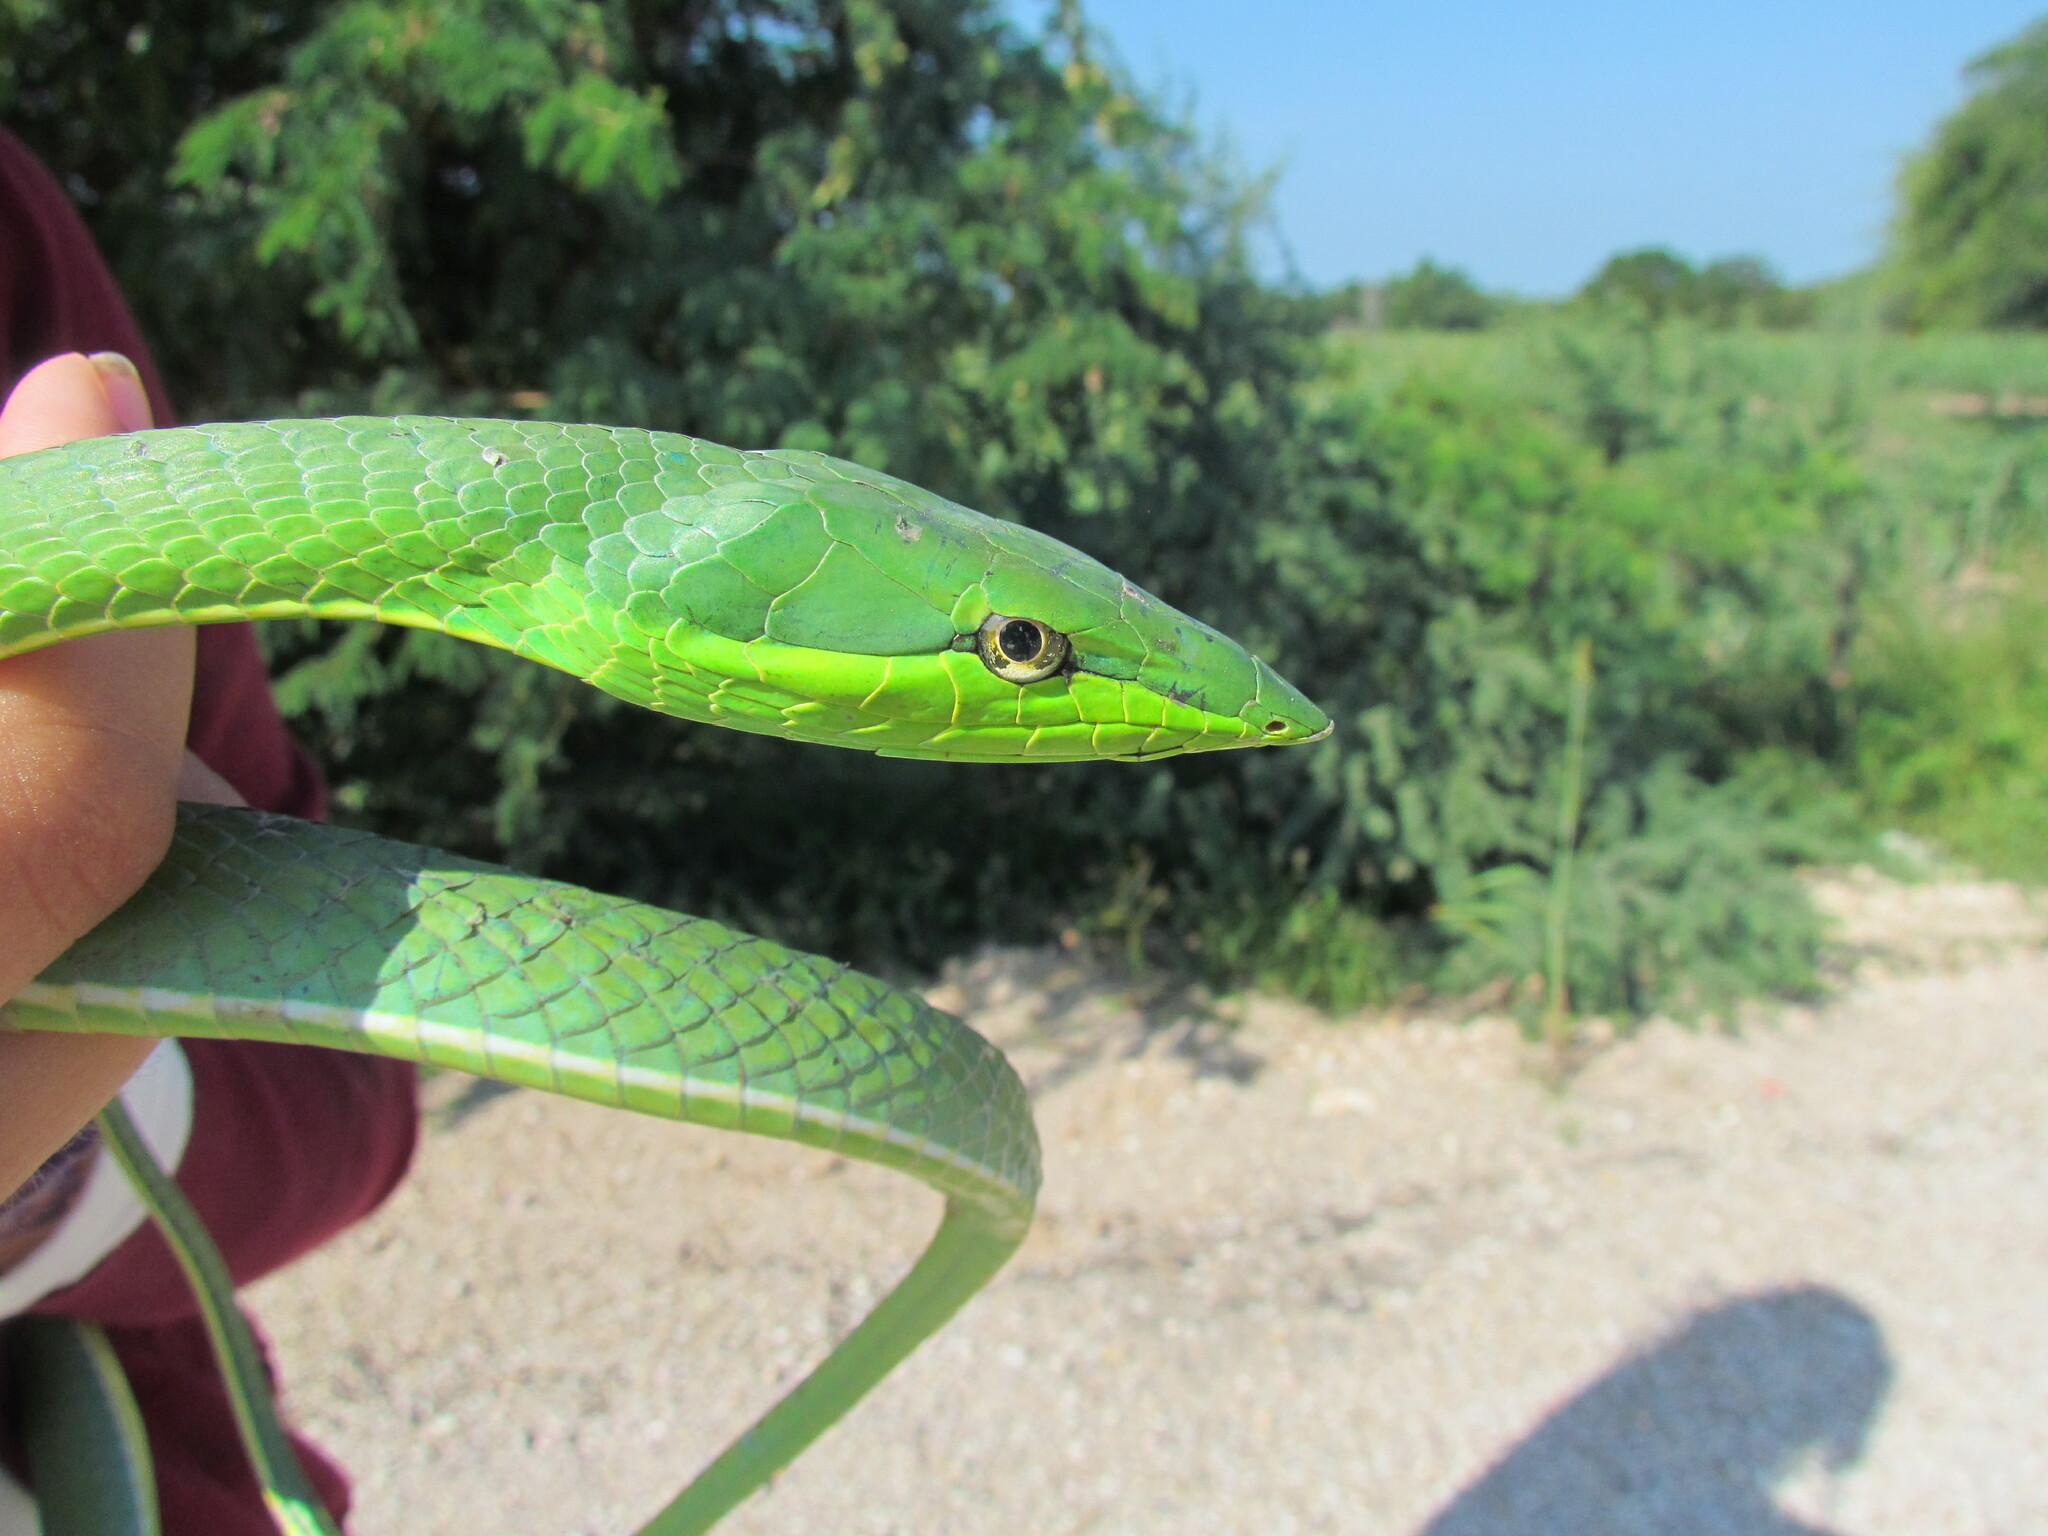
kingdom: Animalia
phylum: Chordata
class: Squamata
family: Colubridae
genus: Oxybelis
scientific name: Oxybelis fulgidus
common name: Green vine snake
